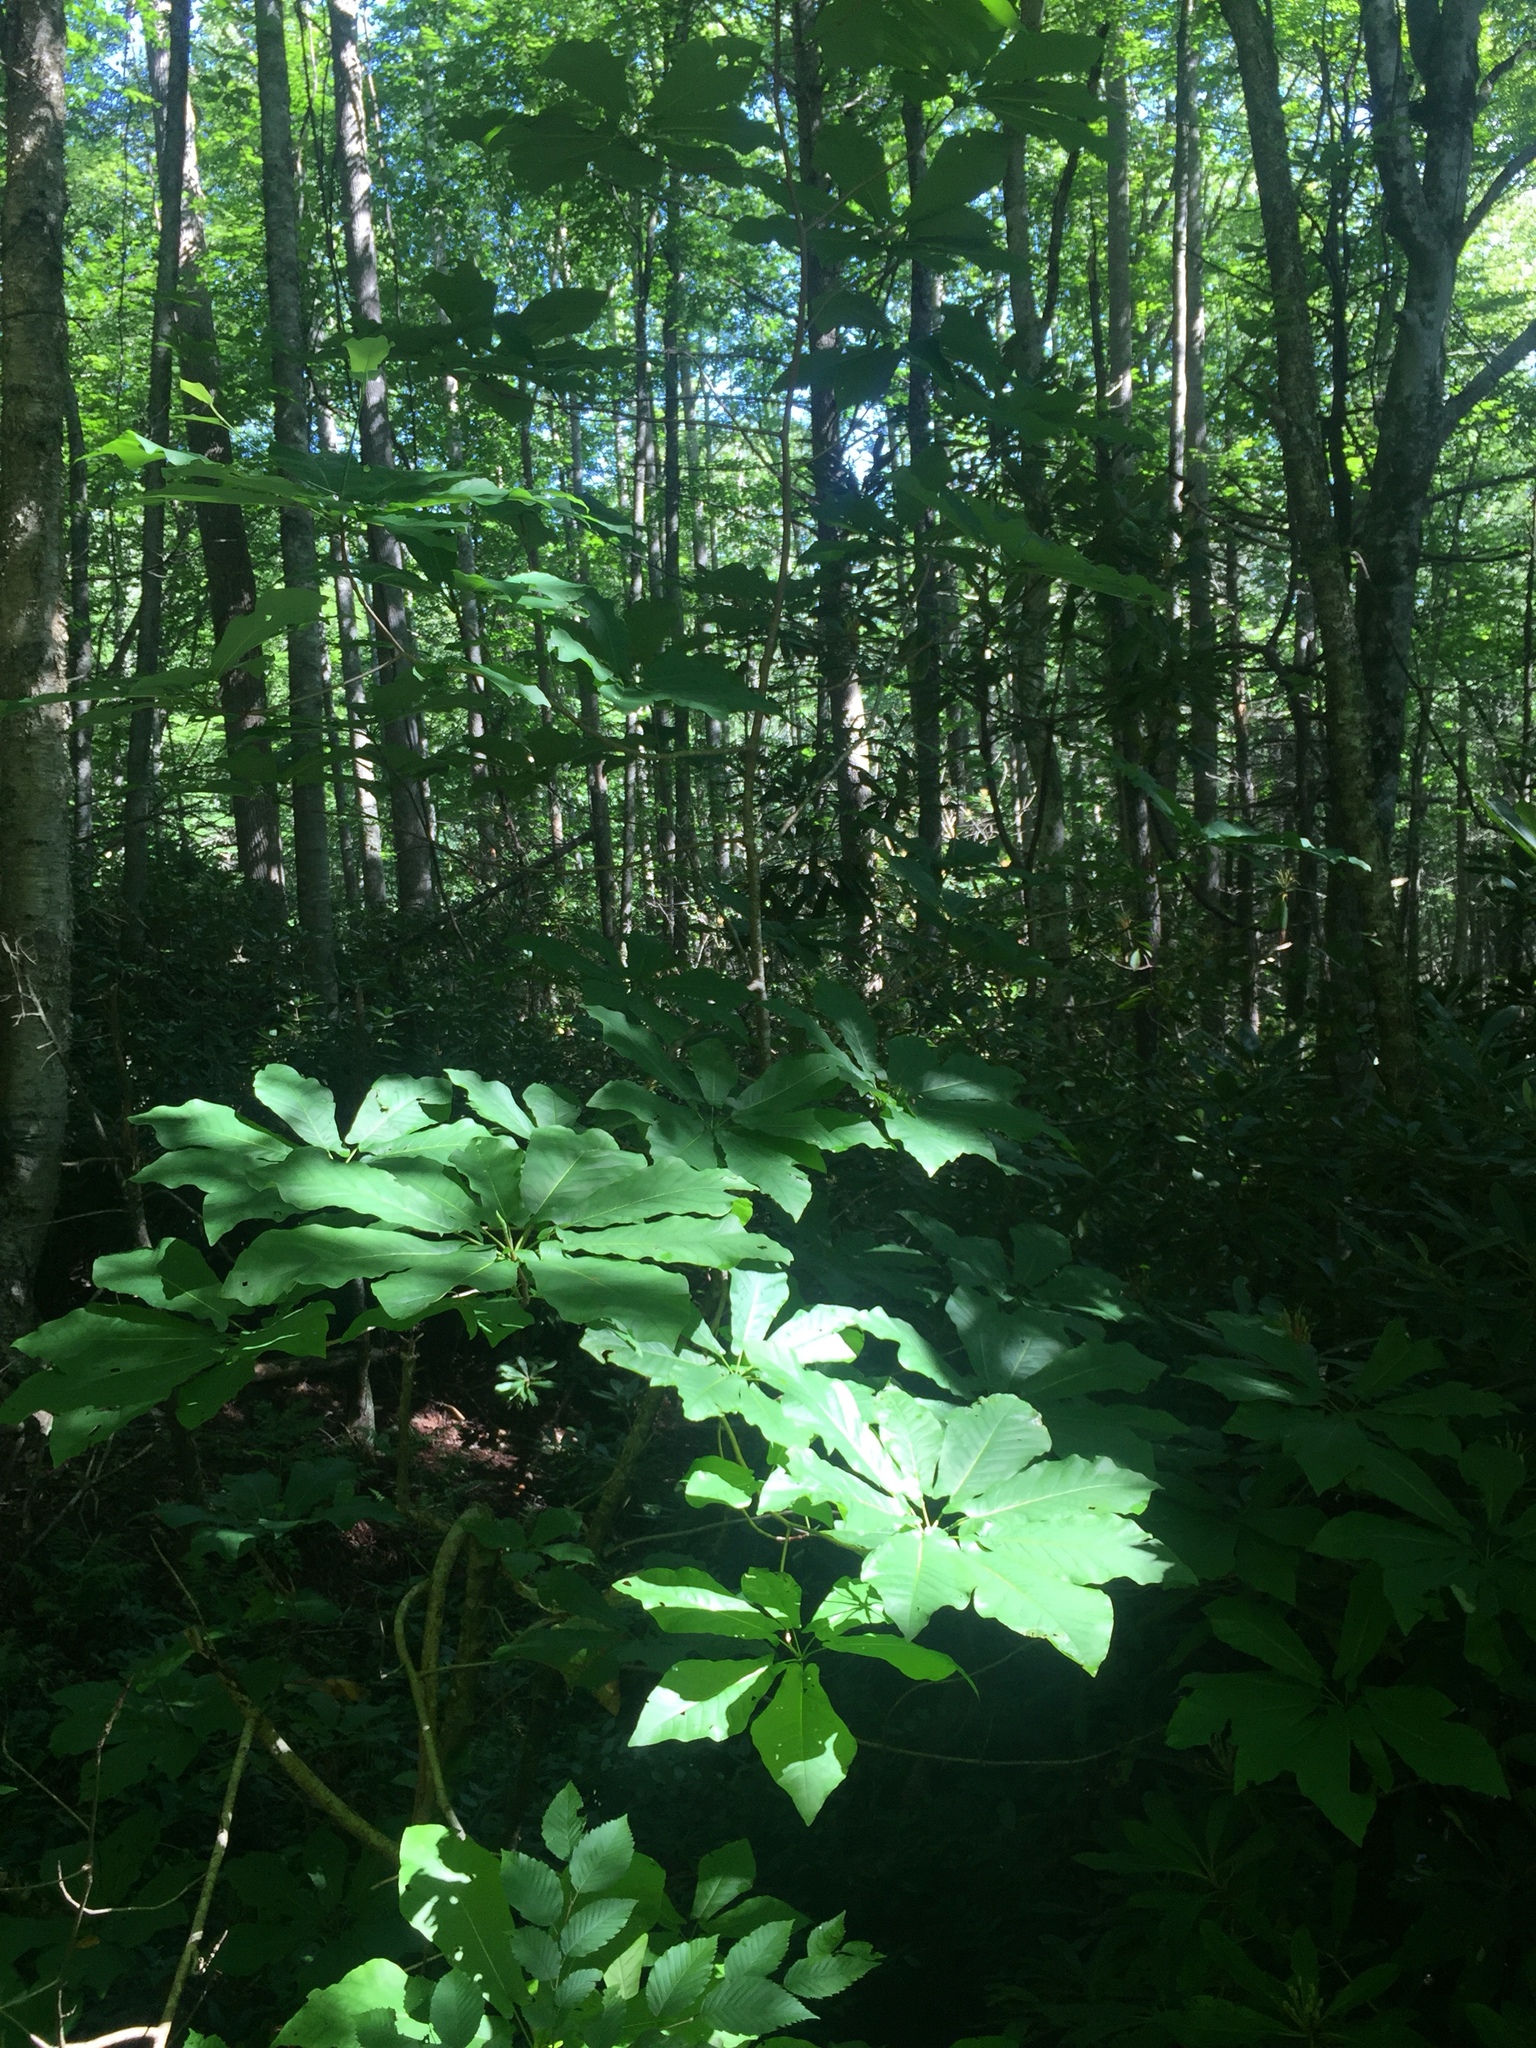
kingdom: Plantae
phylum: Tracheophyta
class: Magnoliopsida
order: Magnoliales
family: Magnoliaceae
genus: Magnolia
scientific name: Magnolia fraseri
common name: Fraser's magnolia
